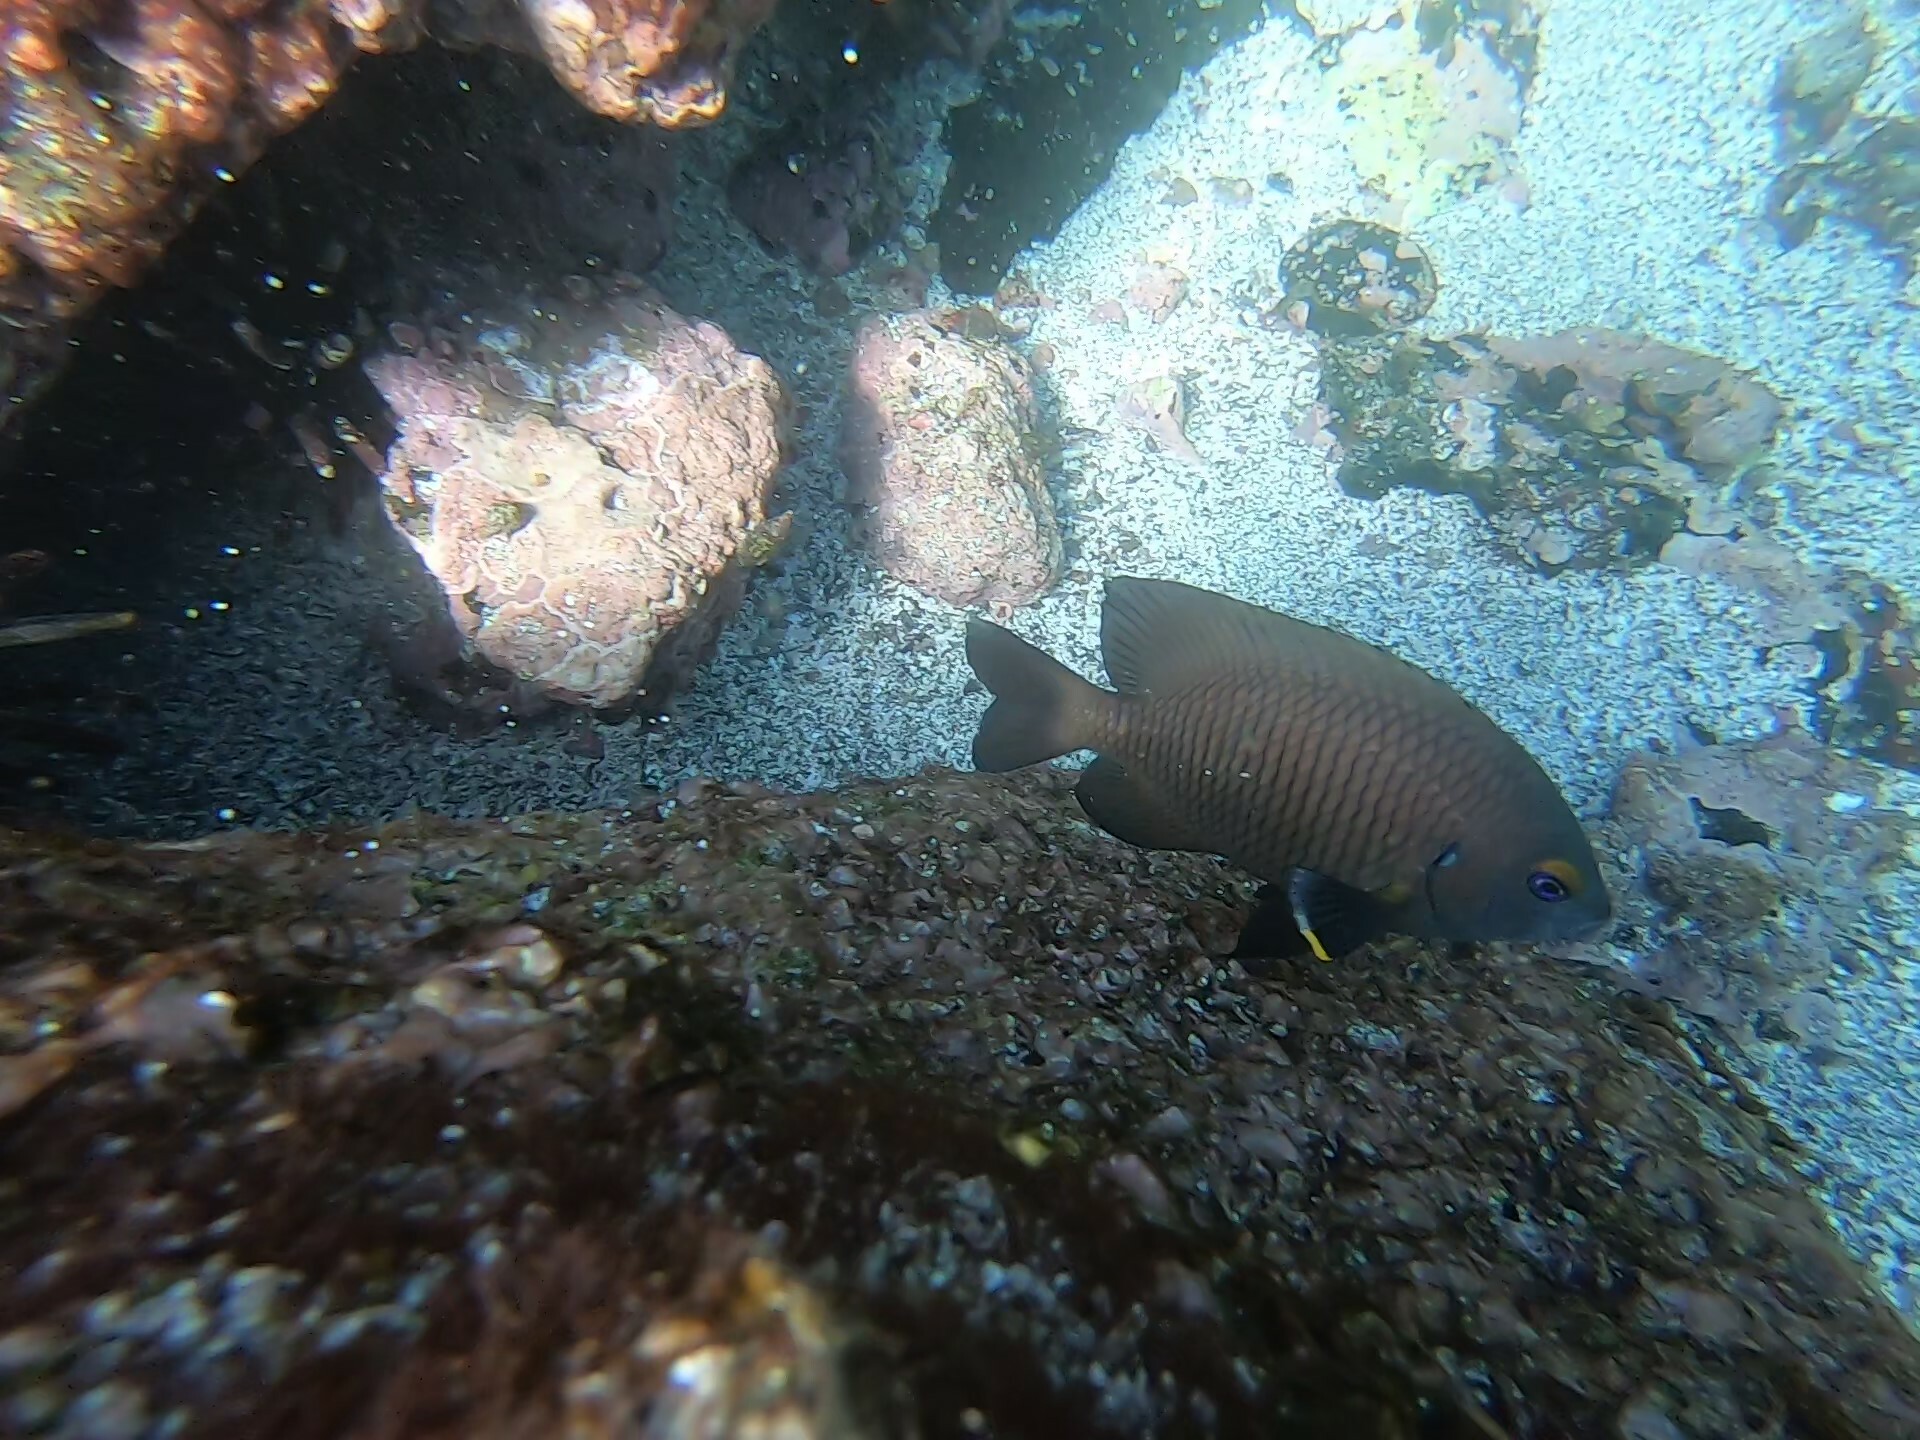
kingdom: Animalia
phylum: Chordata
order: Perciformes
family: Pomacentridae
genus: Stegastes
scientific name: Stegastes beebei
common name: Galapagos ringtail damselfish
